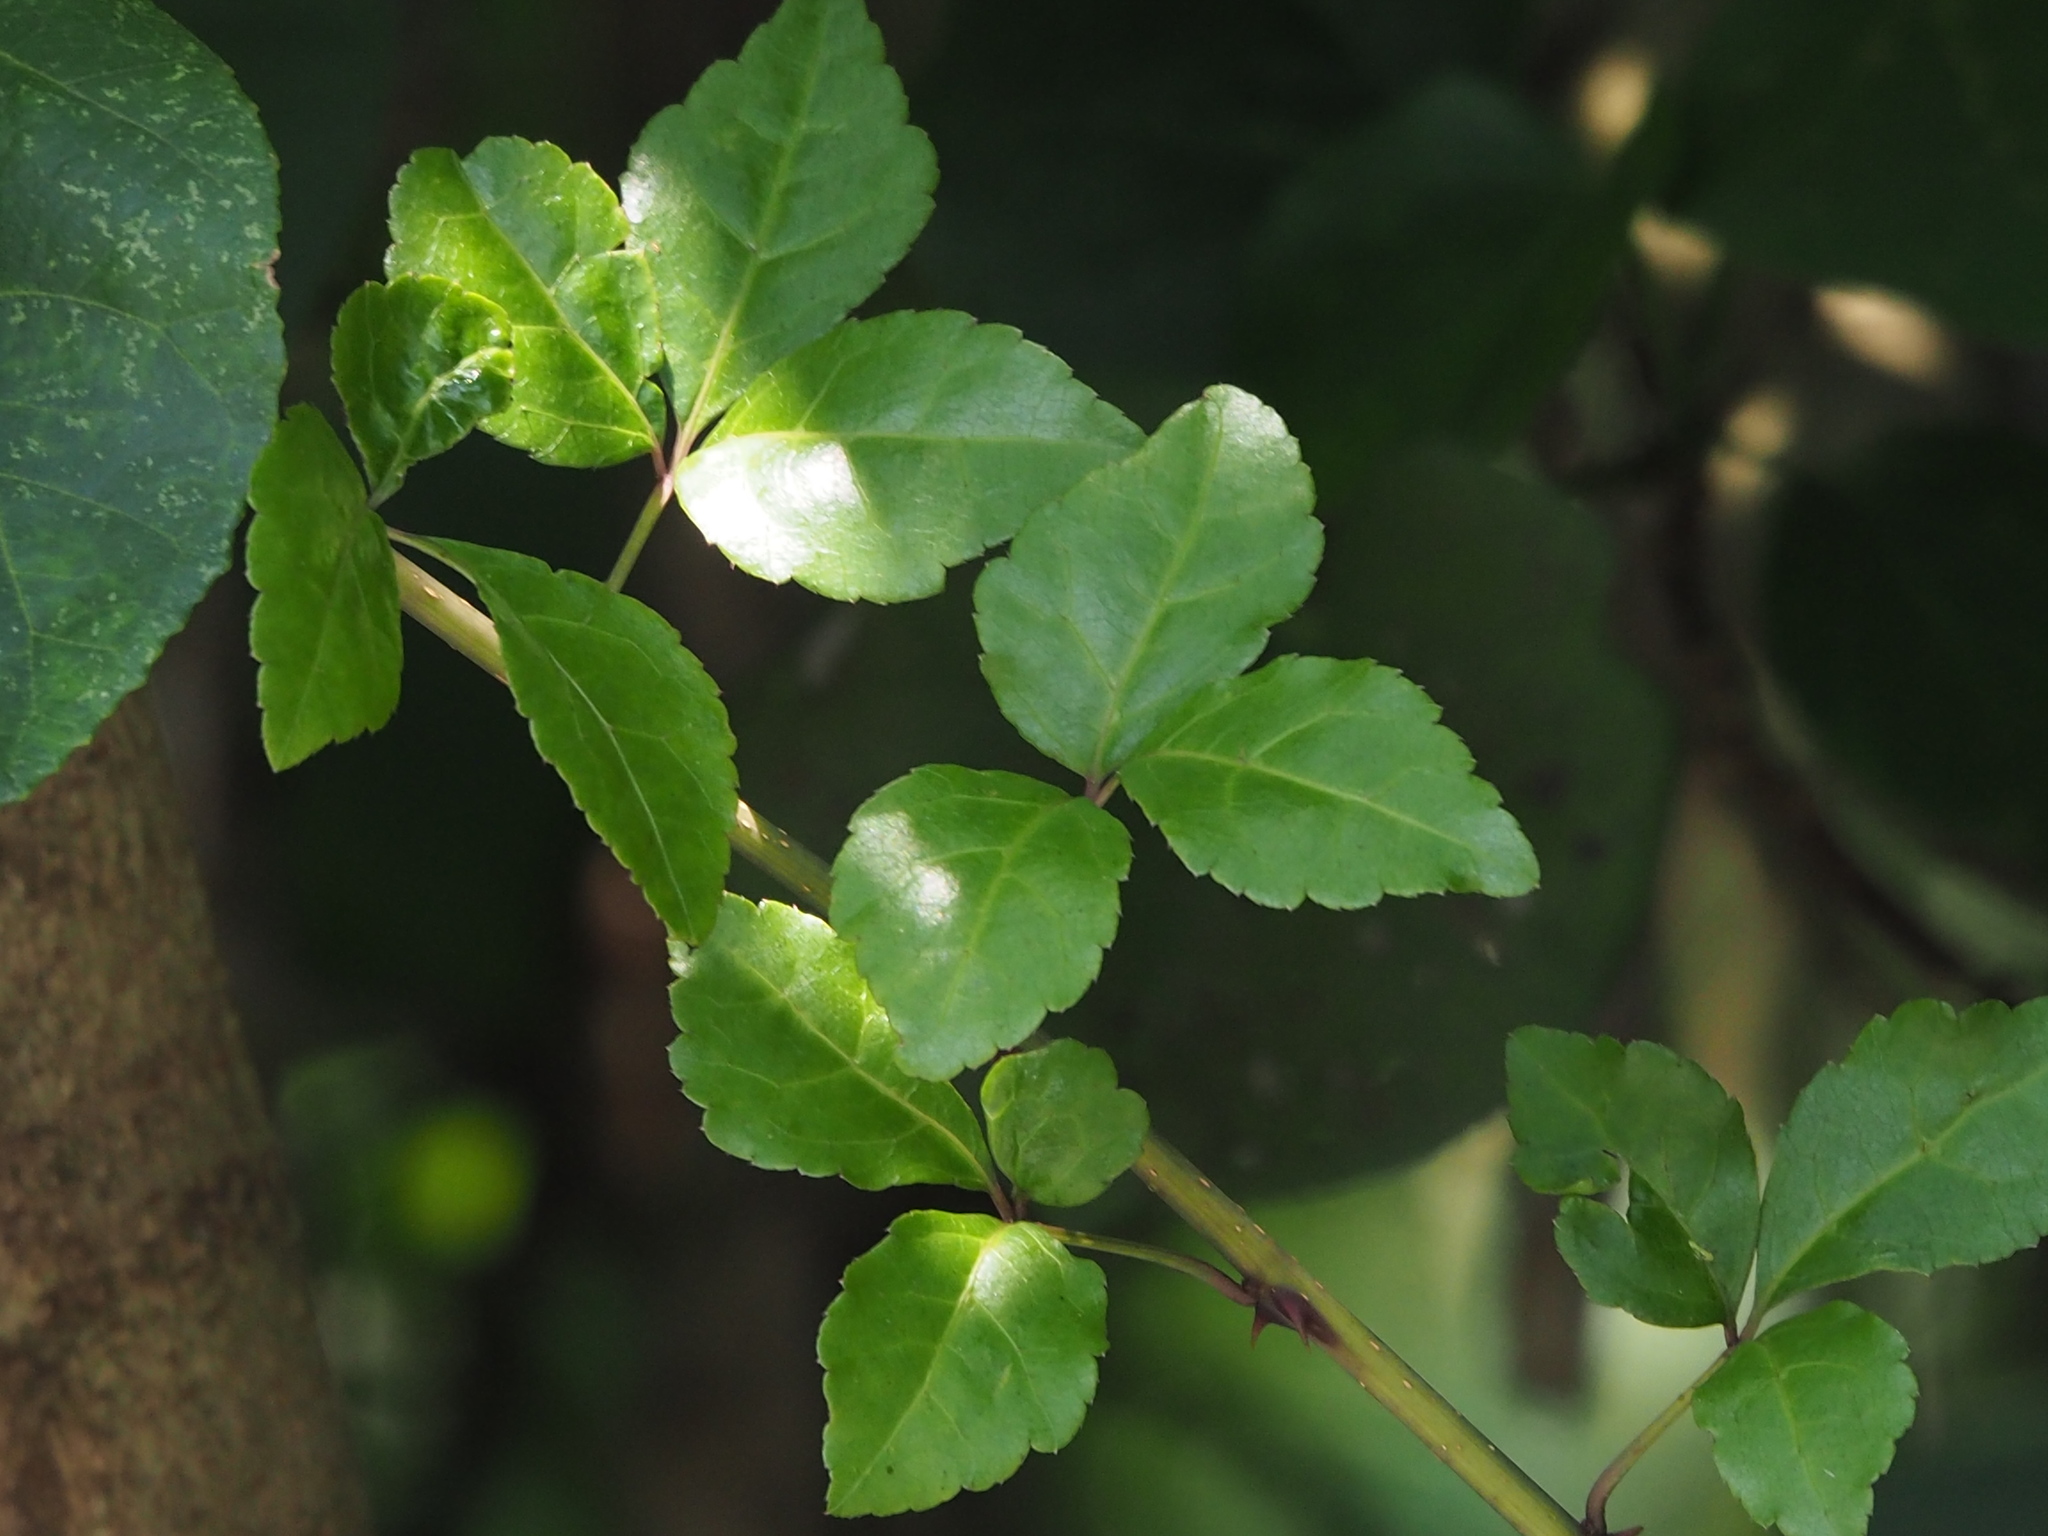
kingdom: Plantae
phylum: Tracheophyta
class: Magnoliopsida
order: Apiales
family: Araliaceae
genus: Eleutherococcus
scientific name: Eleutherococcus trifoliatus
